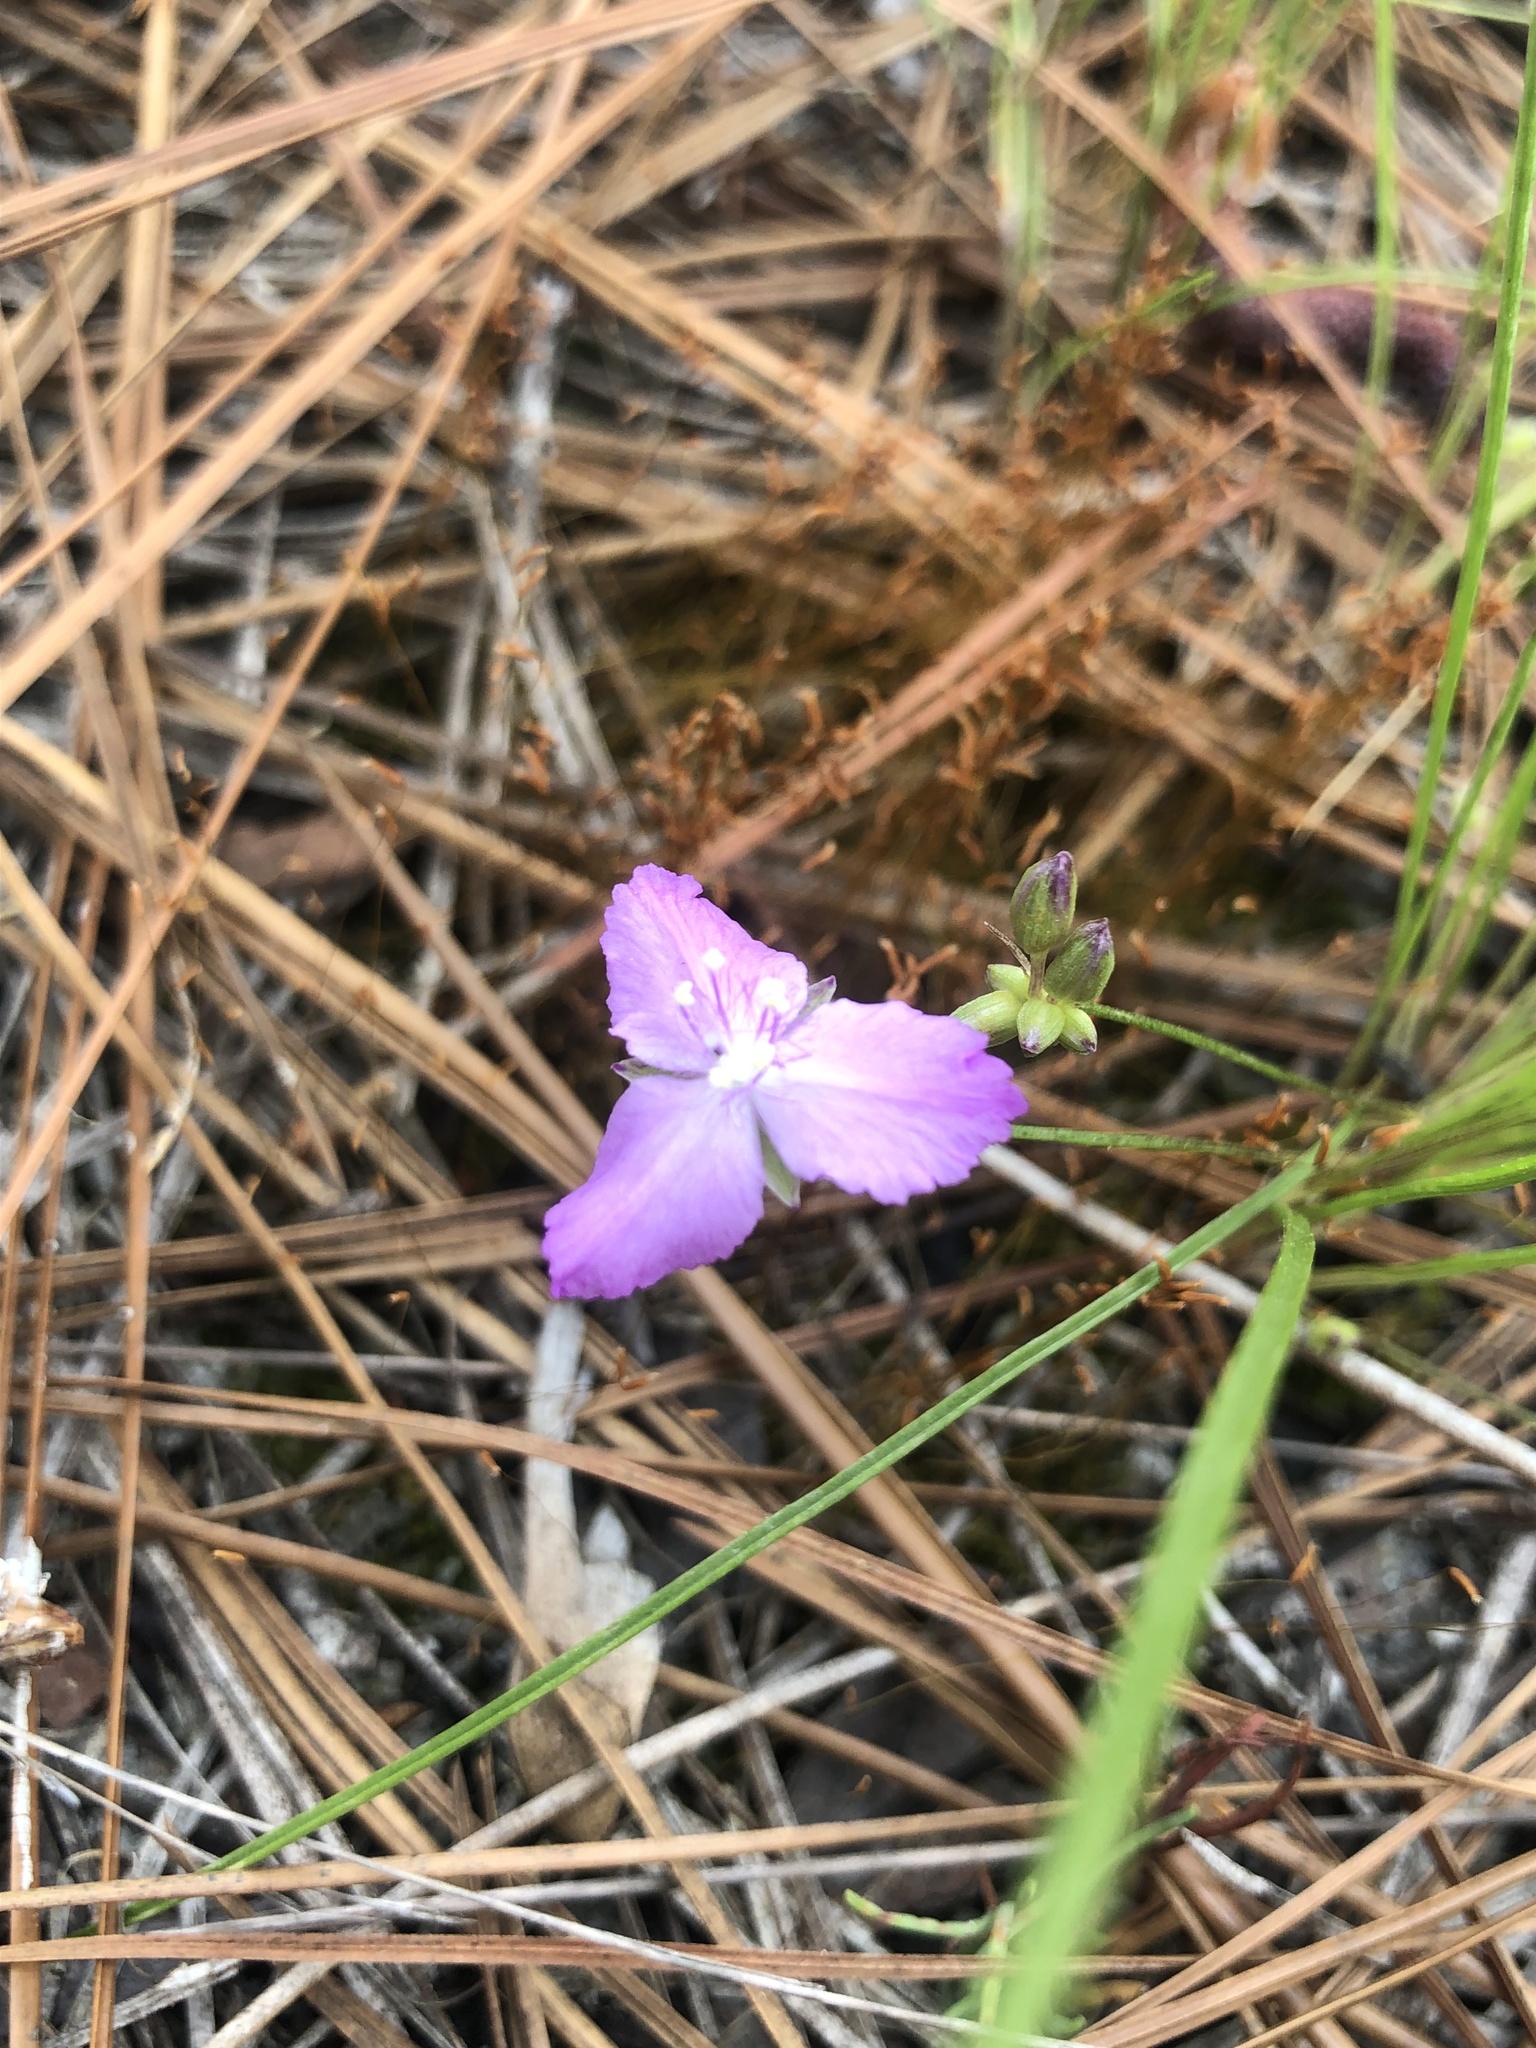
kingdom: Plantae
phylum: Tracheophyta
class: Liliopsida
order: Commelinales
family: Commelinaceae
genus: Callisia
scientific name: Callisia graminea
